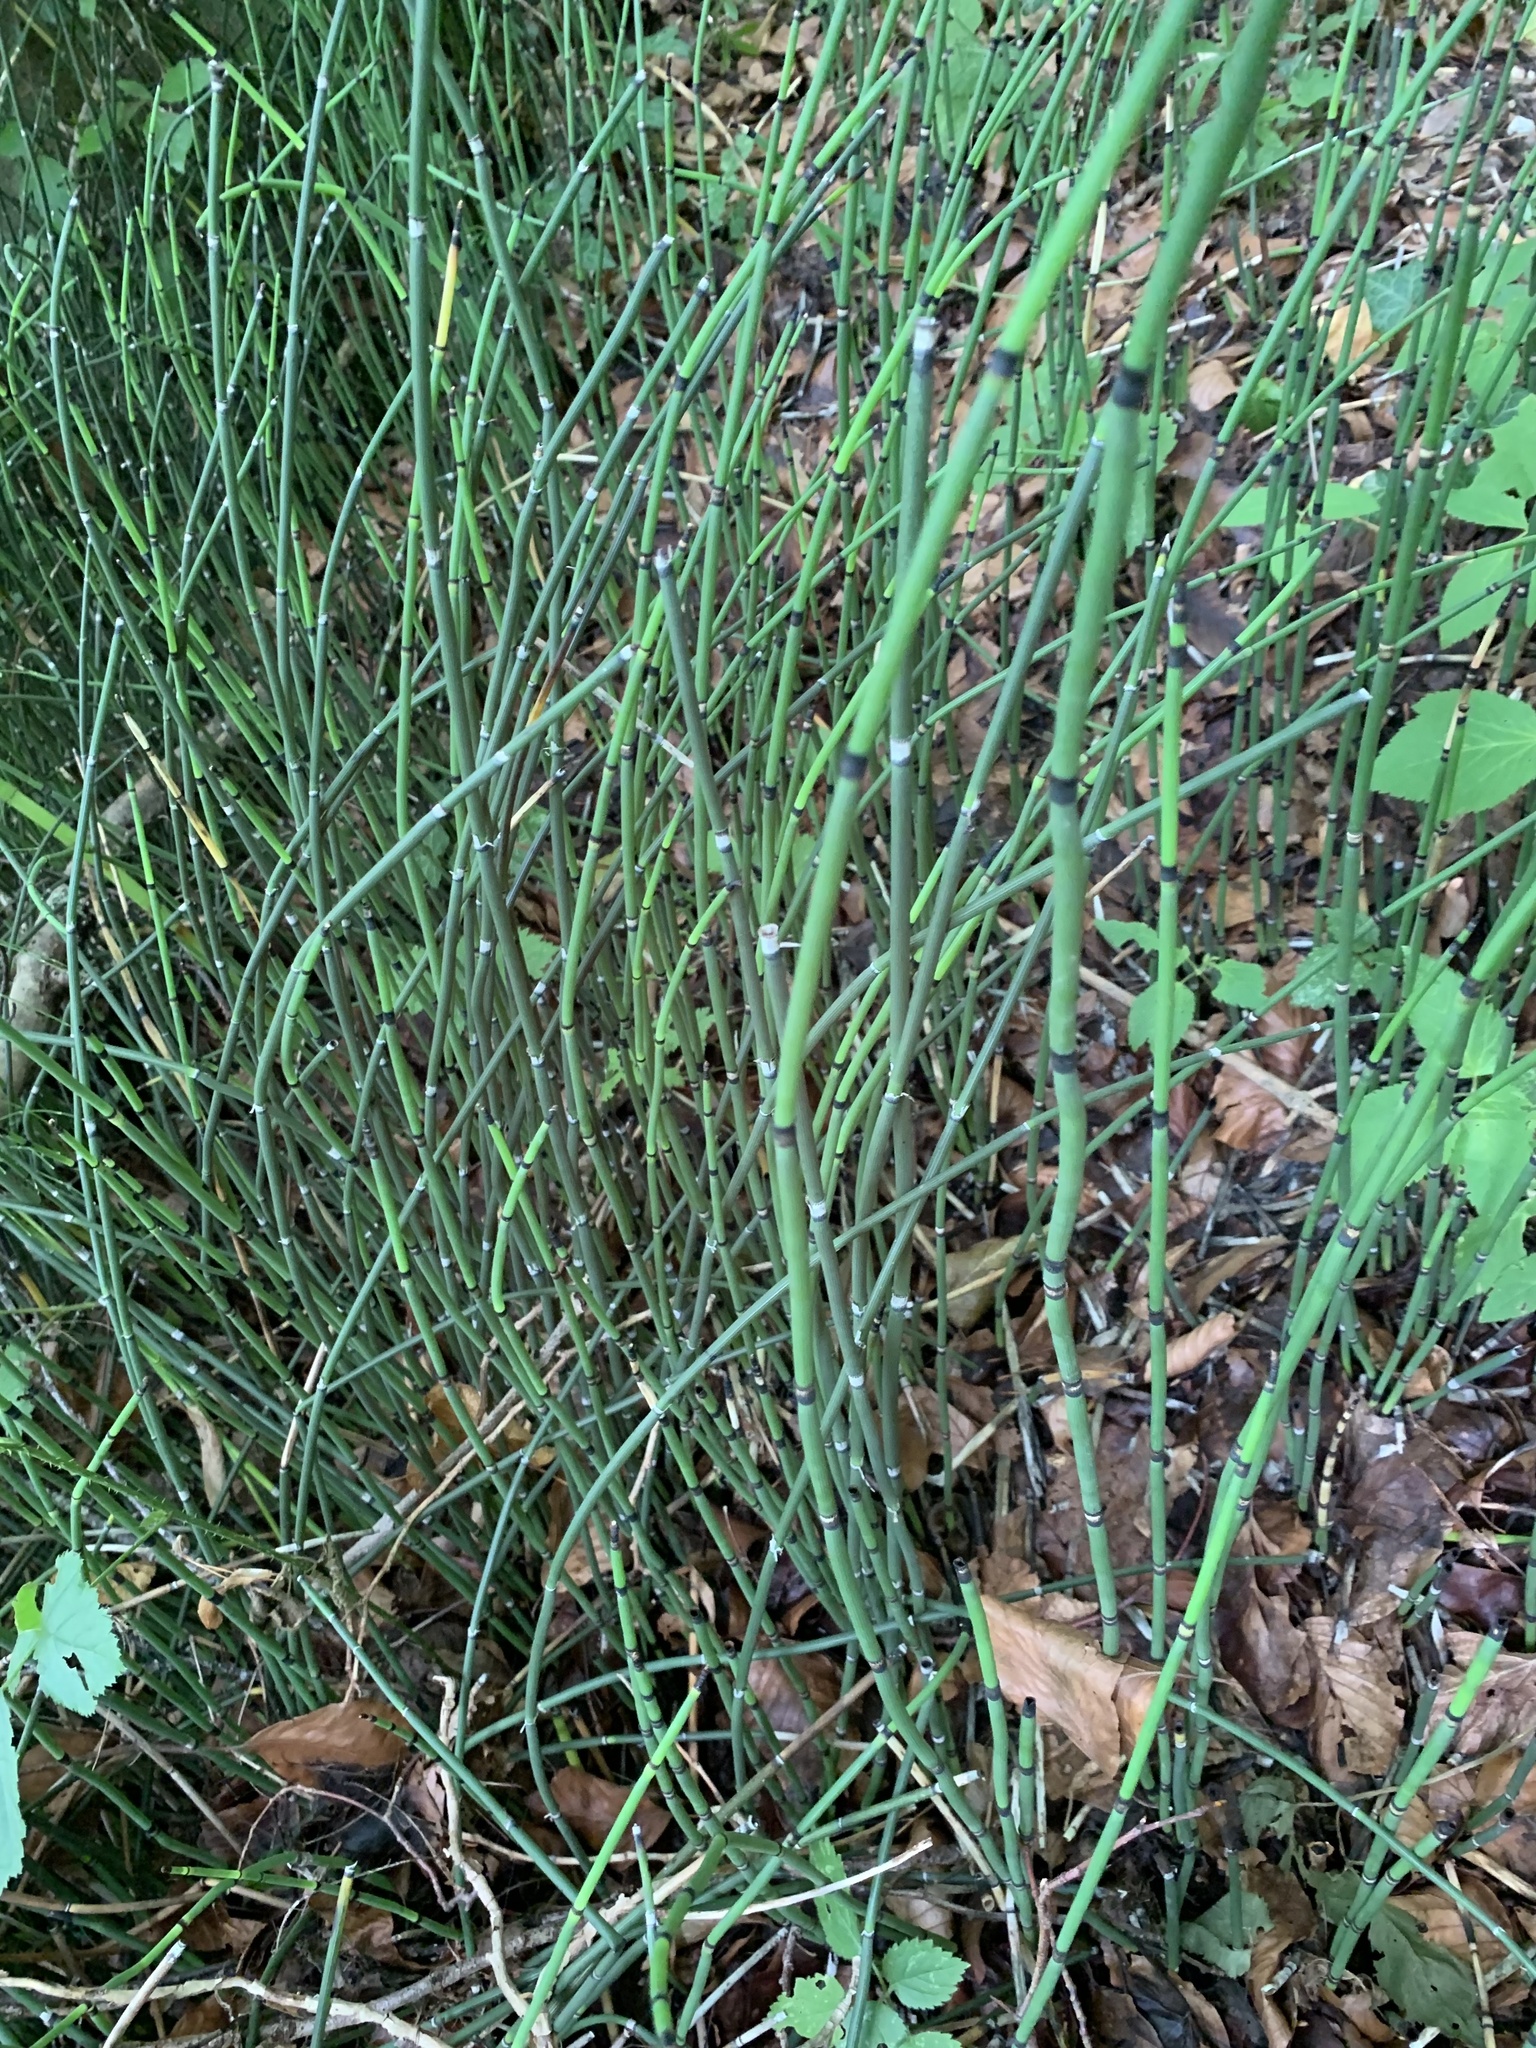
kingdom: Plantae
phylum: Tracheophyta
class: Polypodiopsida
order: Equisetales
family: Equisetaceae
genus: Equisetum
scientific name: Equisetum hyemale
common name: Rough horsetail
